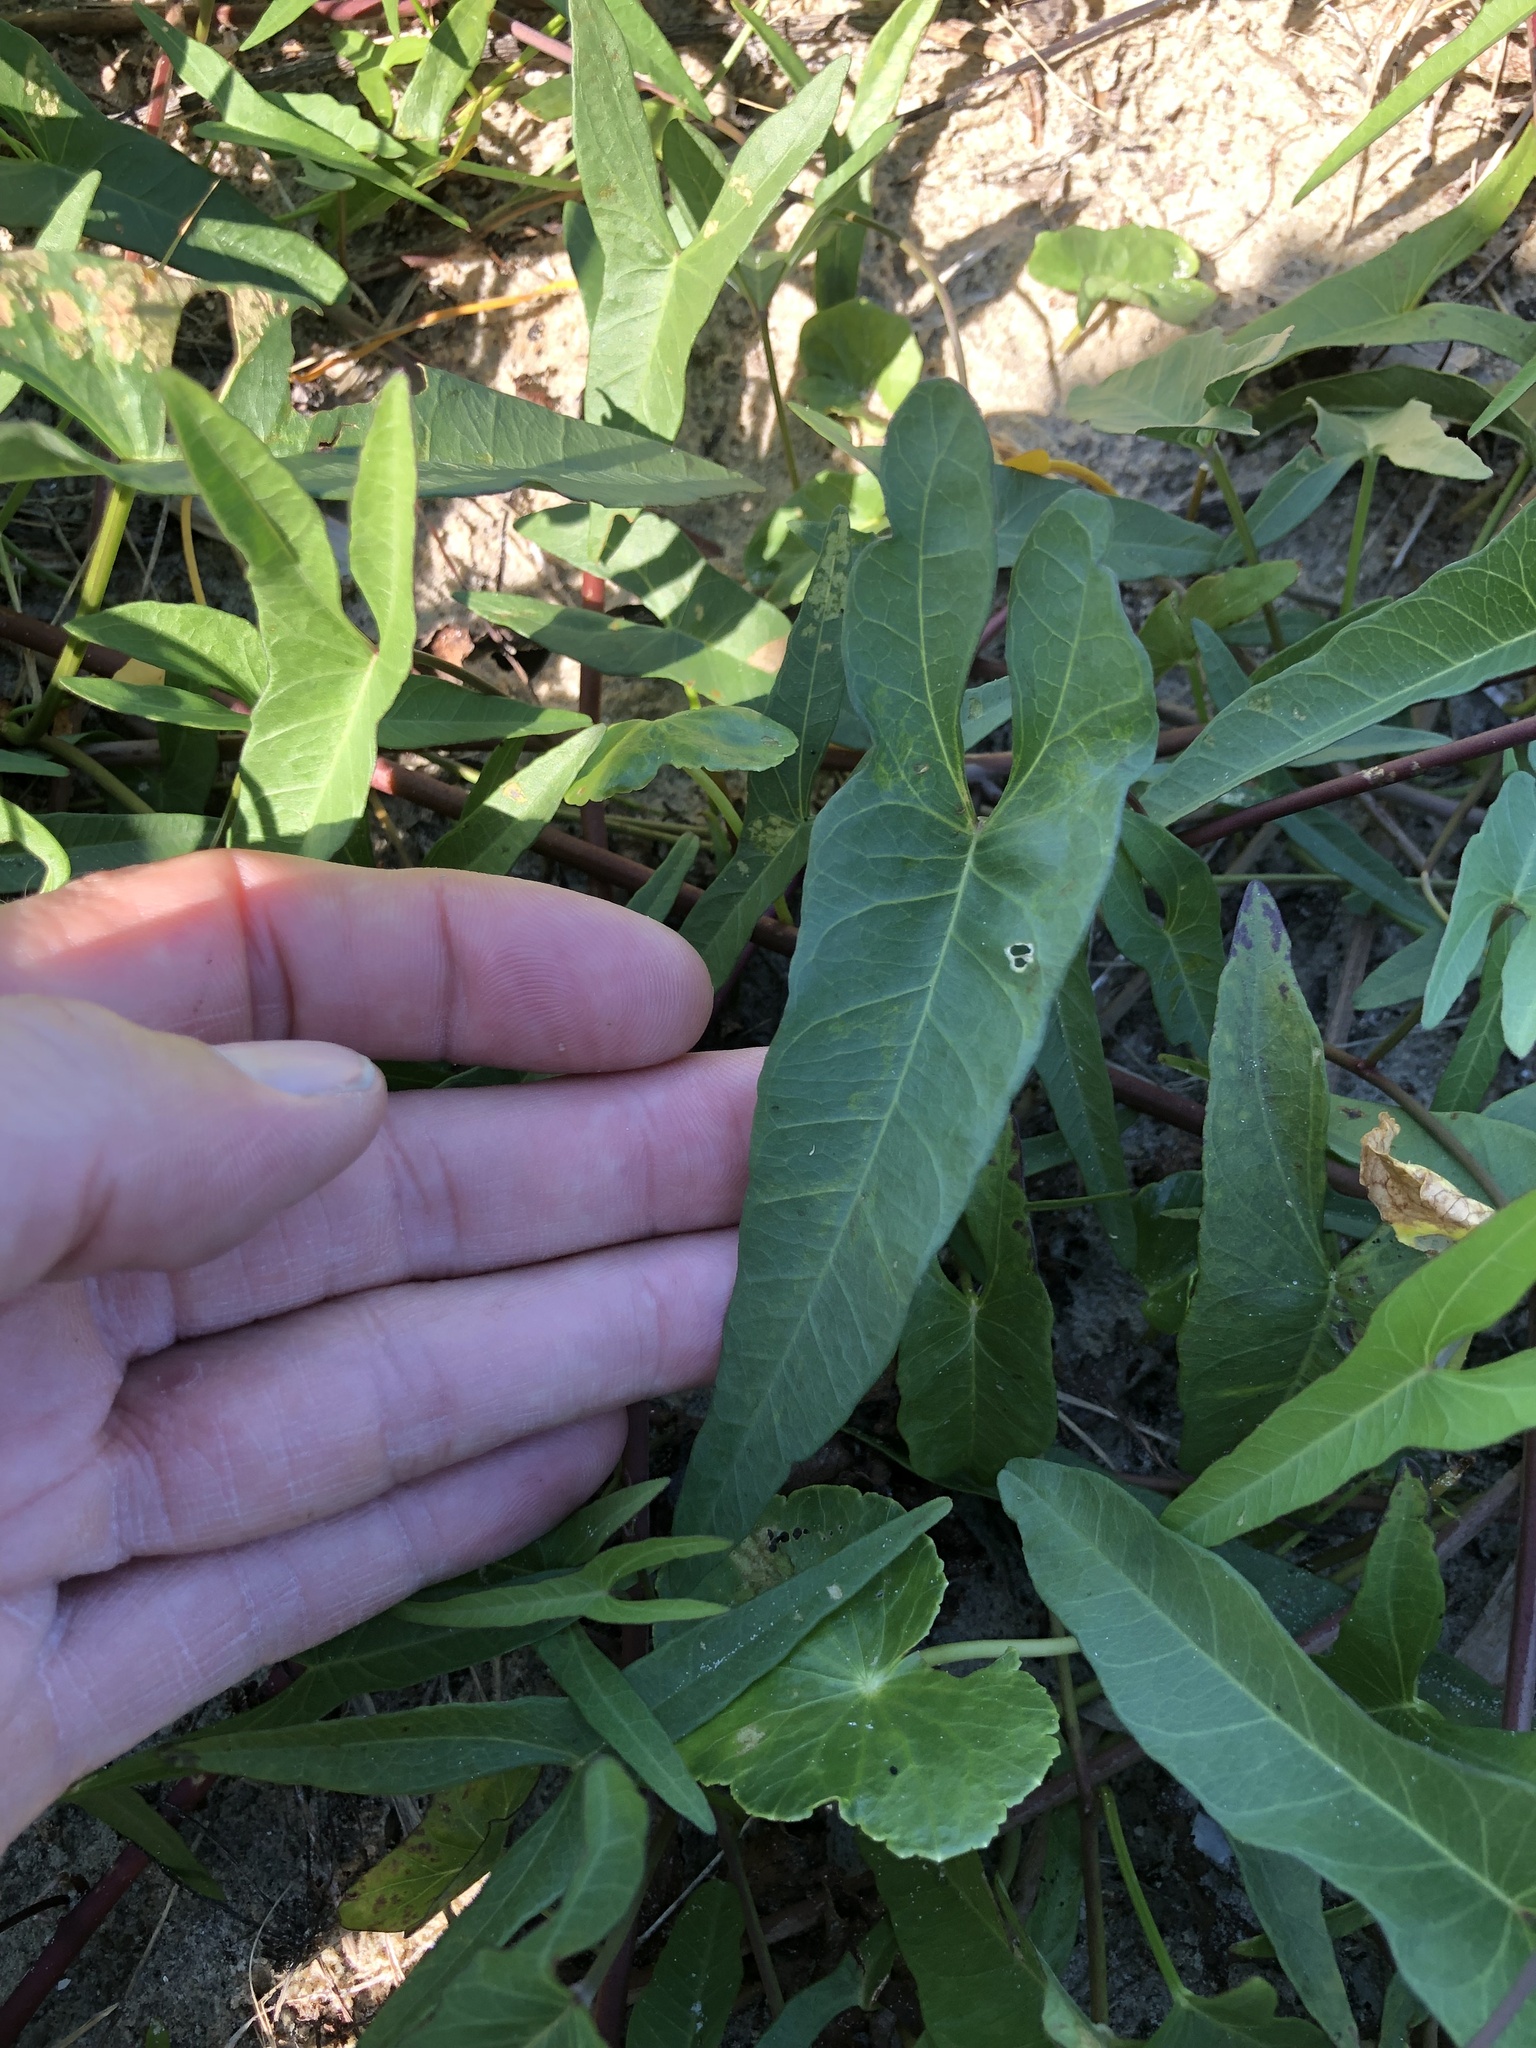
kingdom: Plantae
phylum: Tracheophyta
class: Magnoliopsida
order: Solanales
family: Convolvulaceae
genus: Ipomoea
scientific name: Ipomoea sagittata
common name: Saltmarsh morning glory
